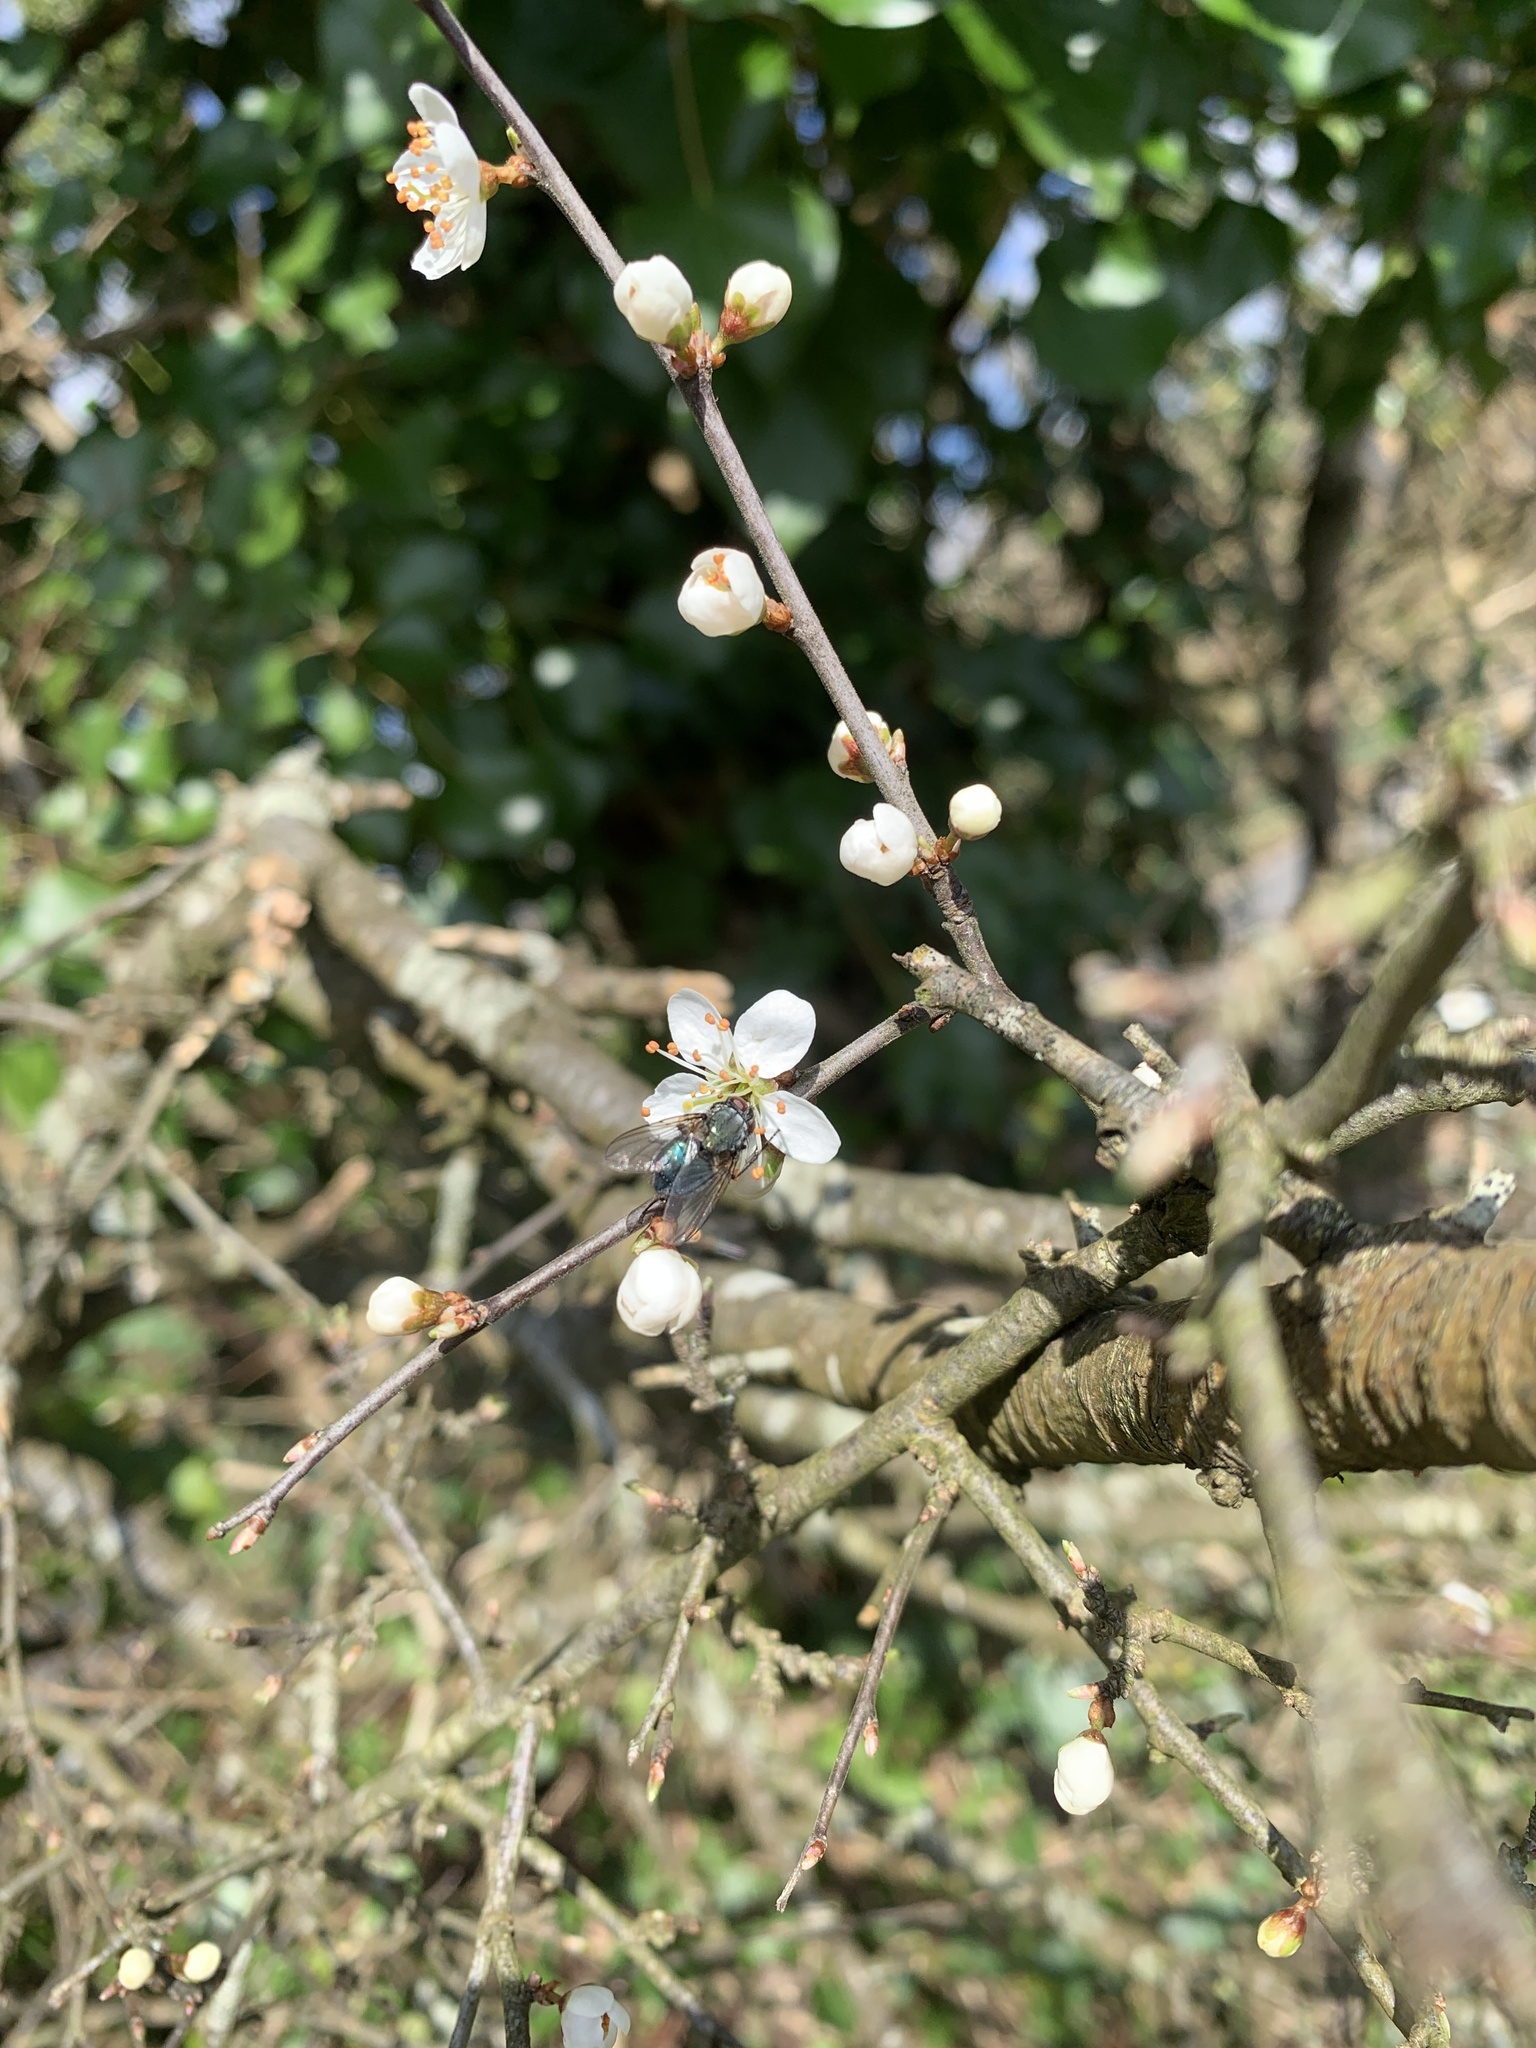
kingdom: Animalia
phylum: Arthropoda
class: Insecta
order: Diptera
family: Muscidae
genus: Dasyphora
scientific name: Dasyphora cyanella
